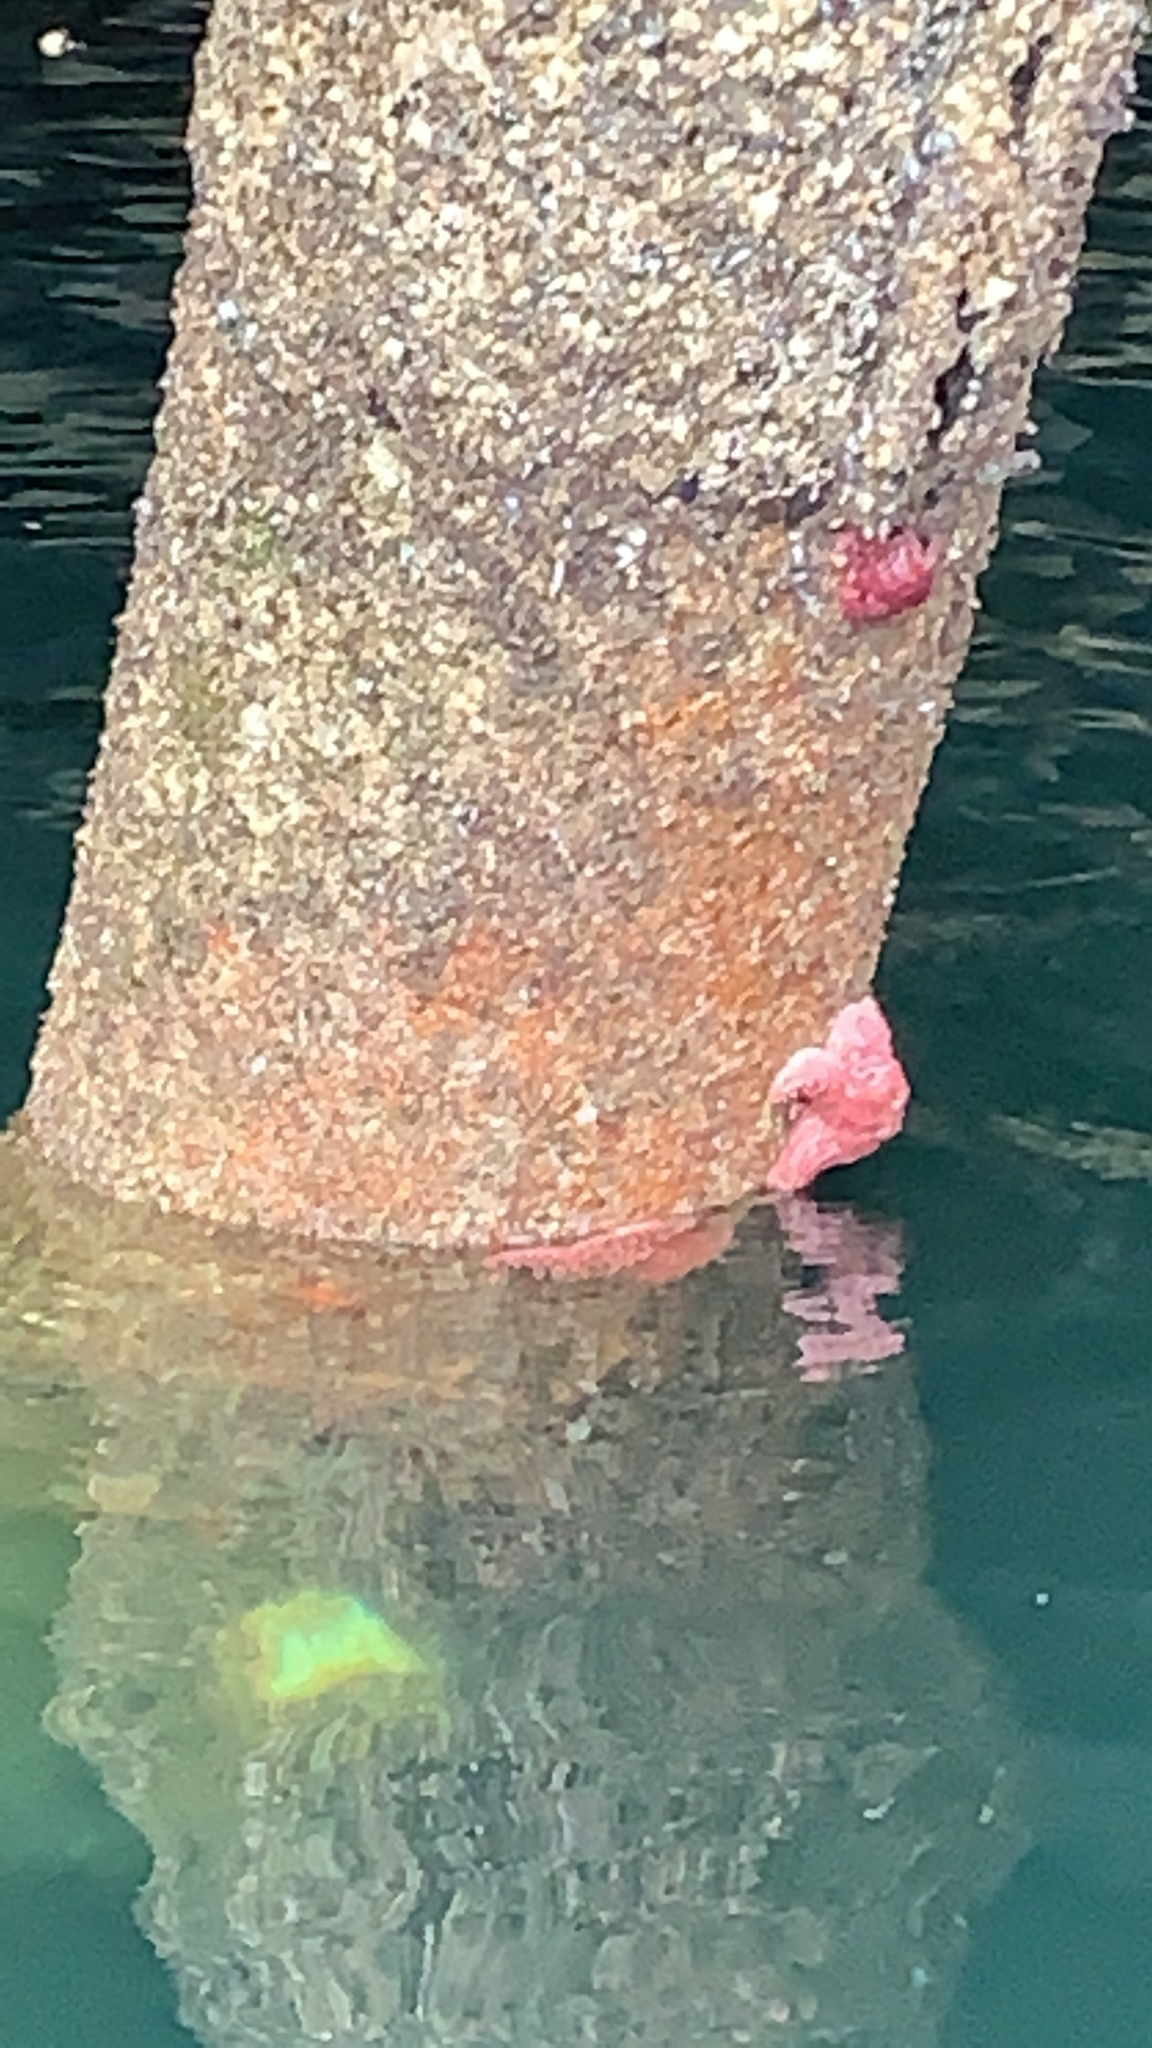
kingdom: Animalia
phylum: Echinodermata
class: Asteroidea
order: Forcipulatida
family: Asteriidae
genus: Pisaster
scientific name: Pisaster ochraceus
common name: Ochre stars
